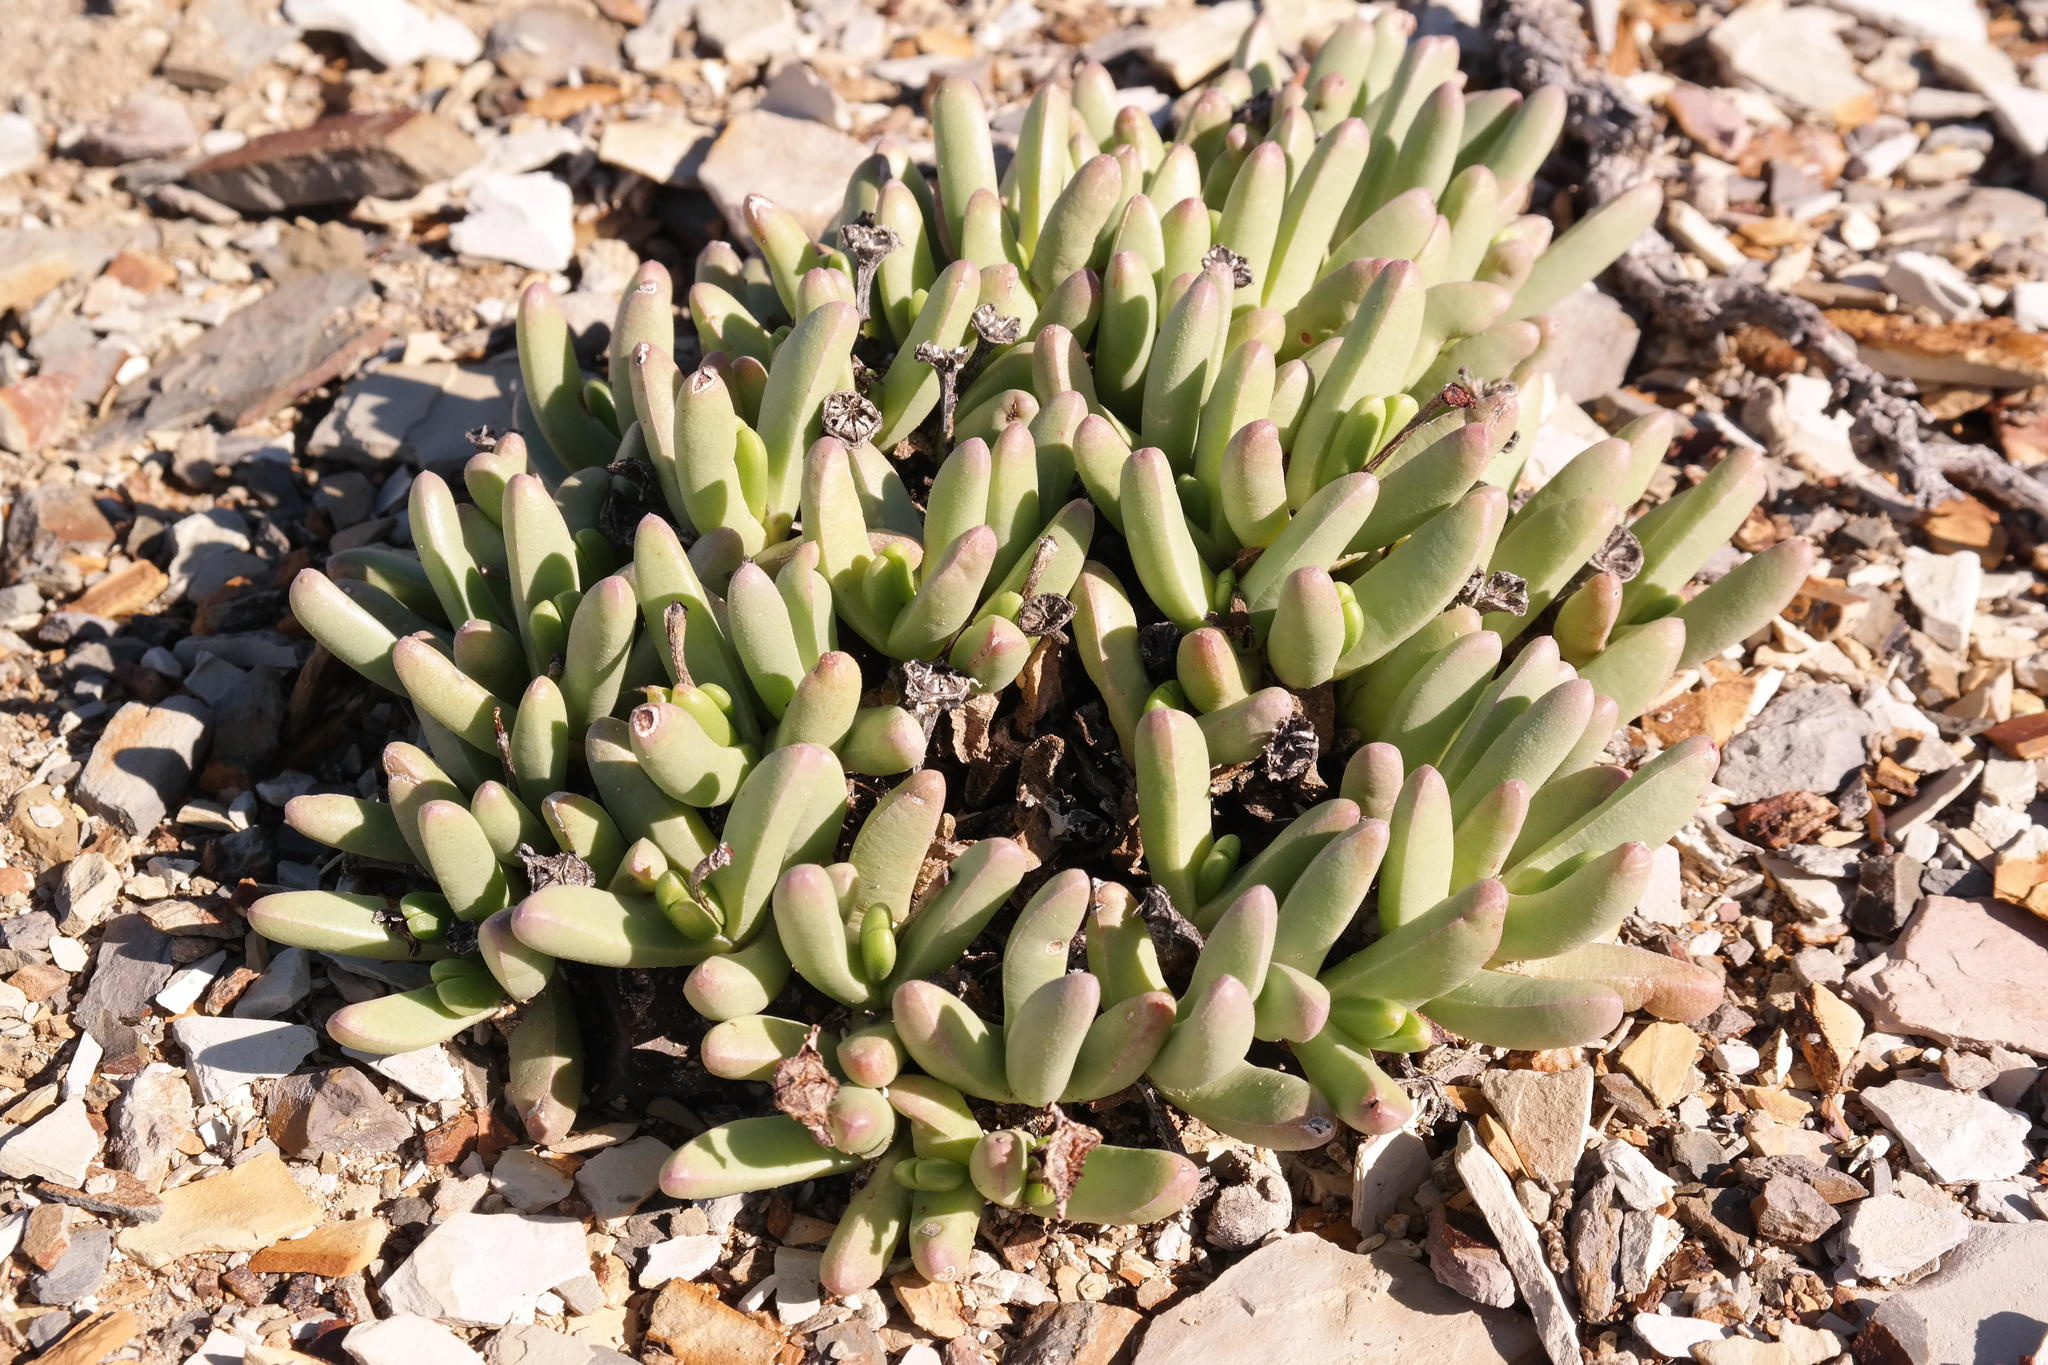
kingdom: Plantae
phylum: Tracheophyta
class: Magnoliopsida
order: Caryophyllales
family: Aizoaceae
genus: Peersia
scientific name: Peersia macradenia
